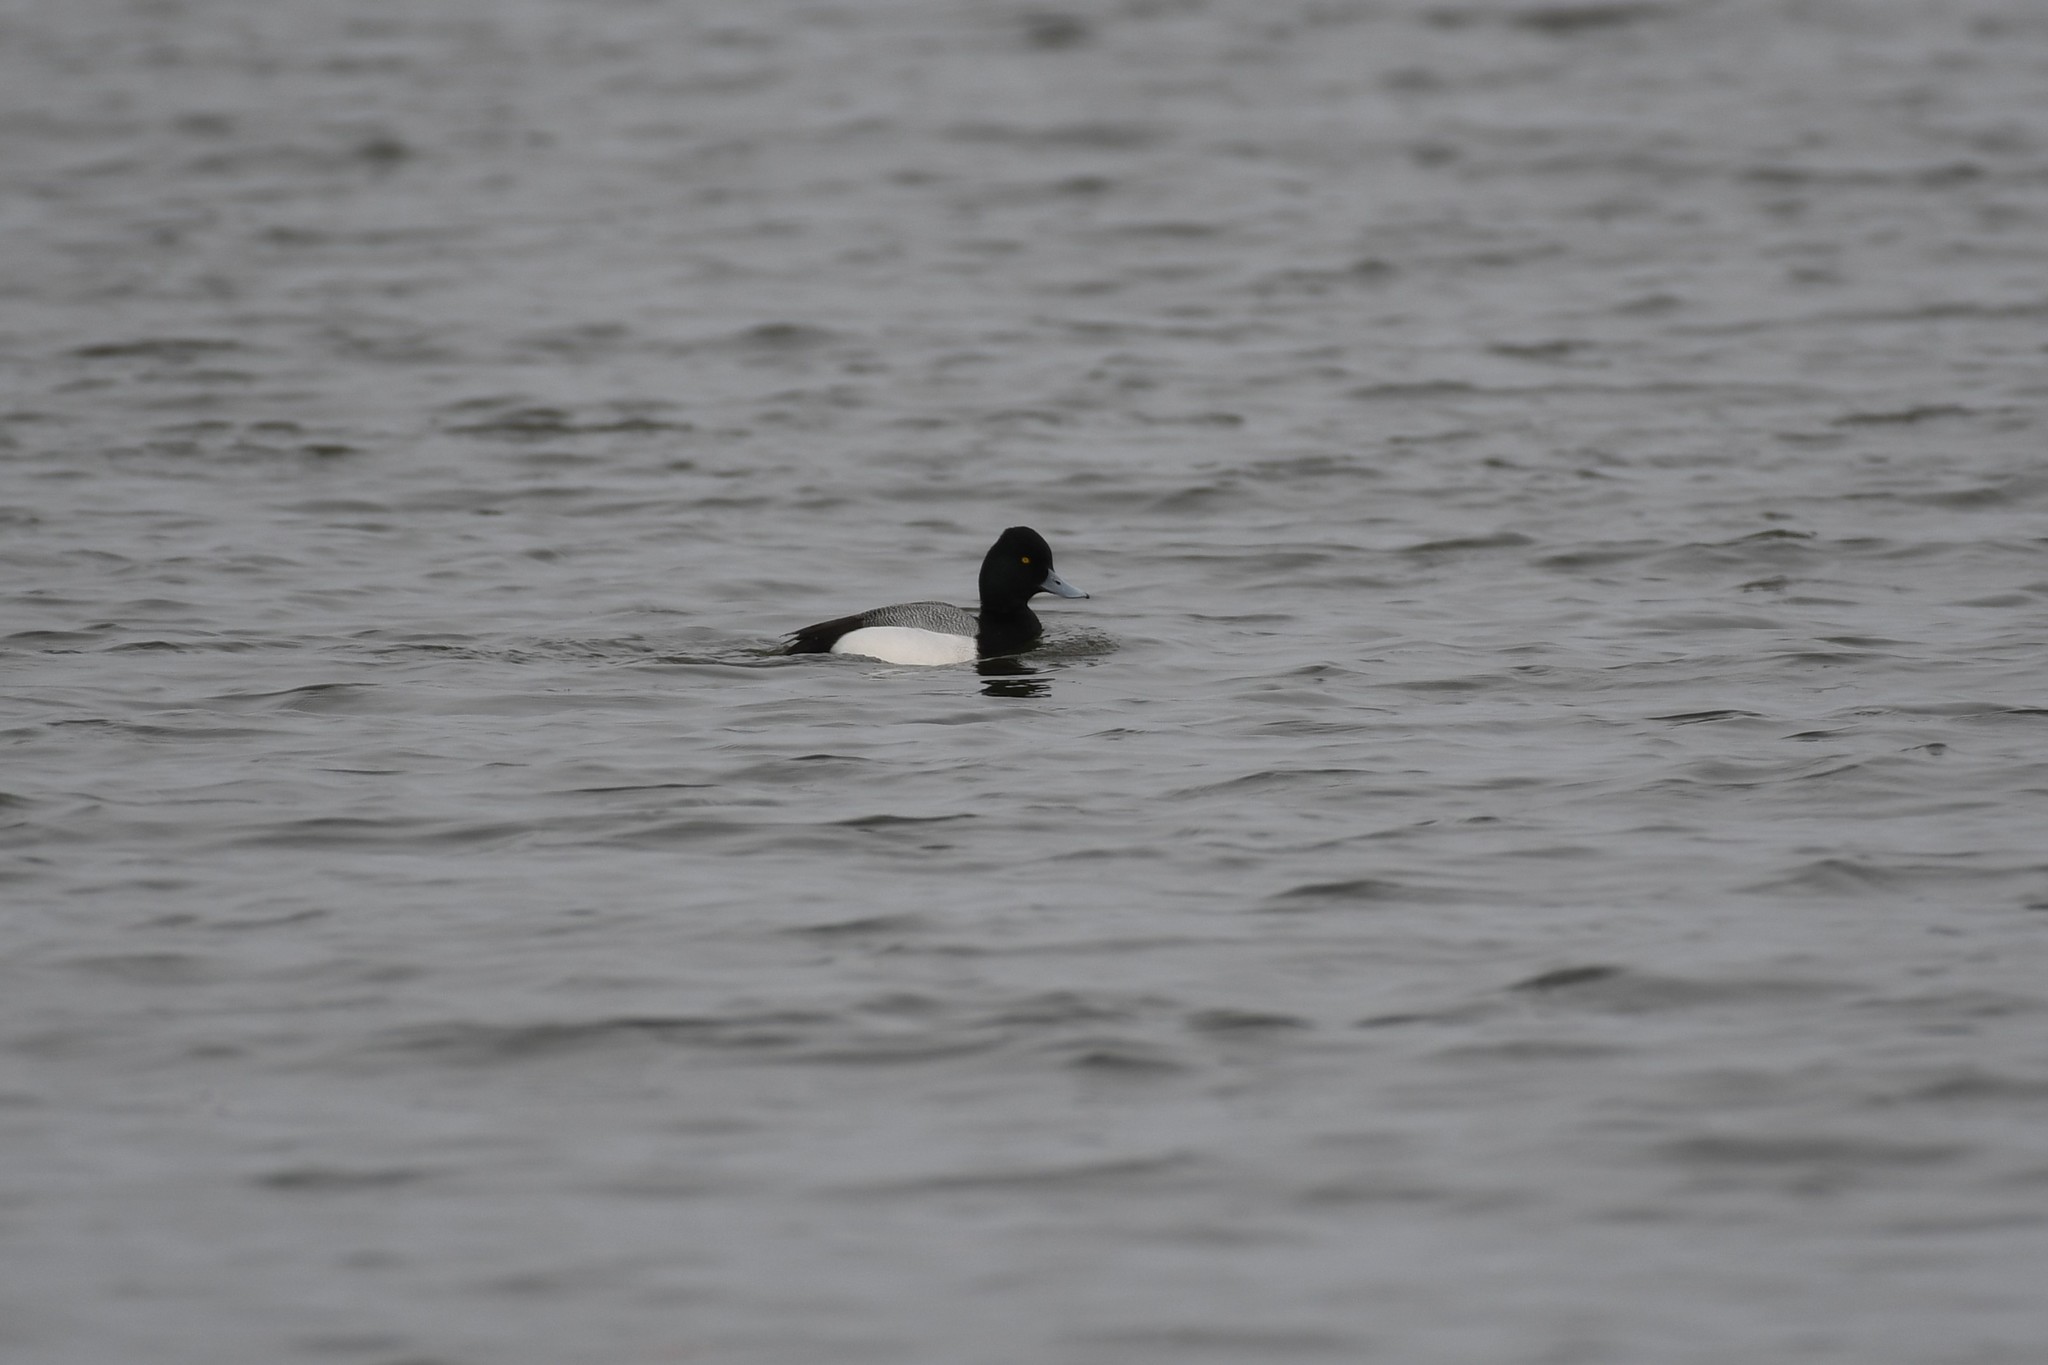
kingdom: Animalia
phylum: Chordata
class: Aves
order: Anseriformes
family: Anatidae
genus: Aythya
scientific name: Aythya affinis
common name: Lesser scaup
